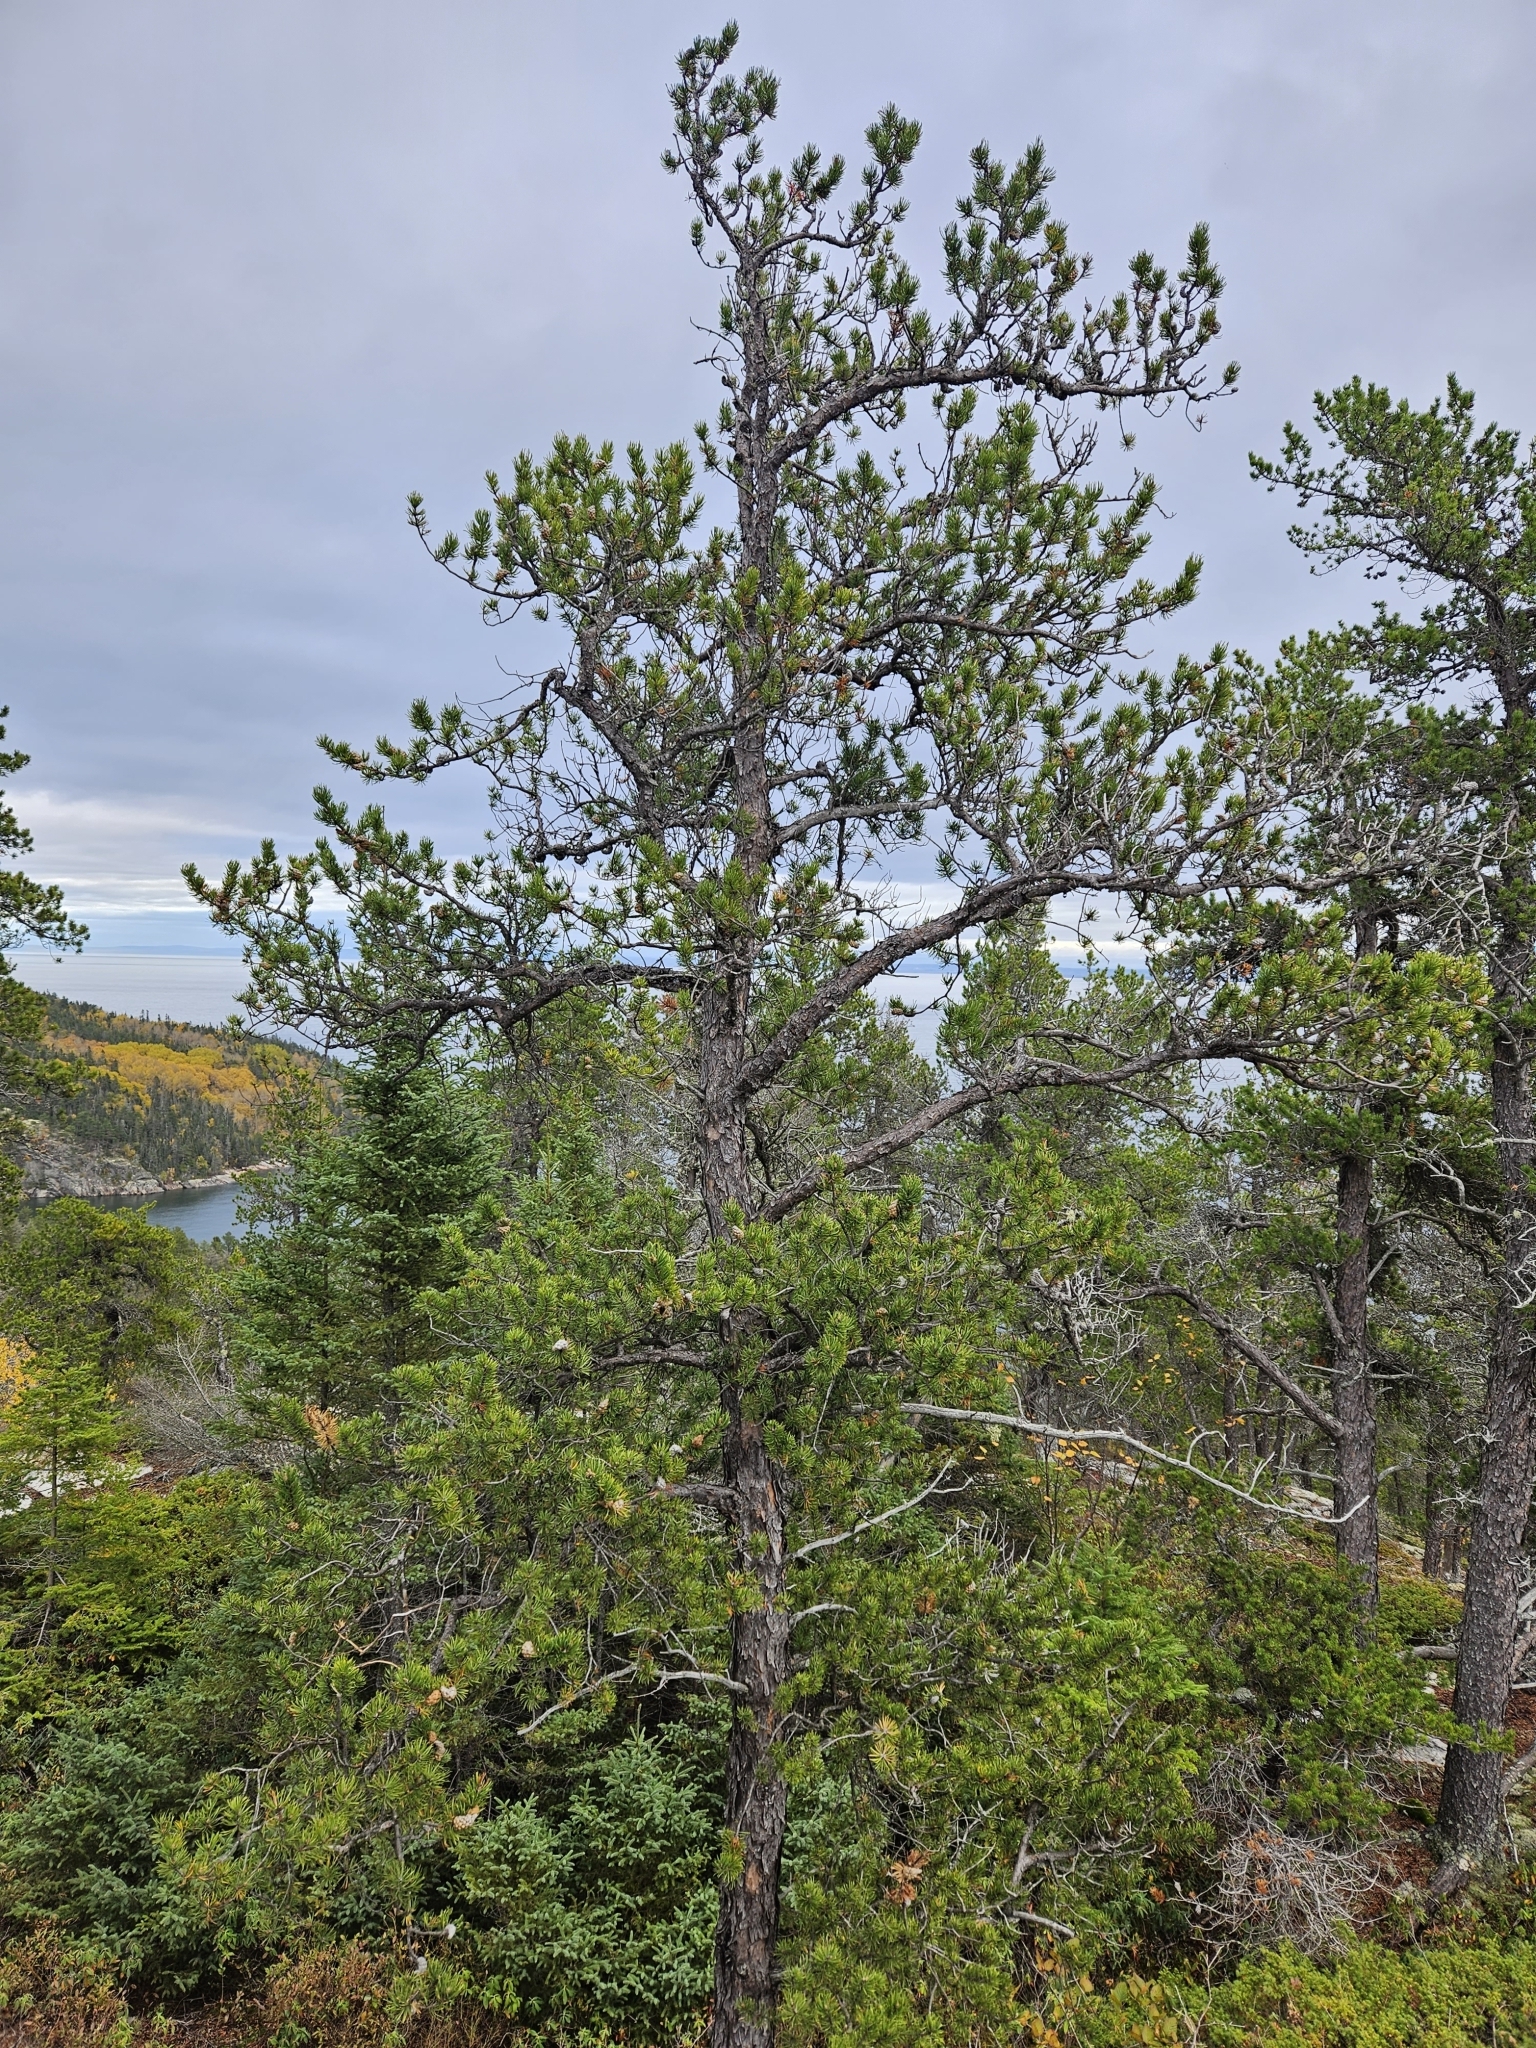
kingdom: Plantae
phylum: Tracheophyta
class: Pinopsida
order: Pinales
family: Pinaceae
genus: Pinus
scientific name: Pinus banksiana
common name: Jack pine
